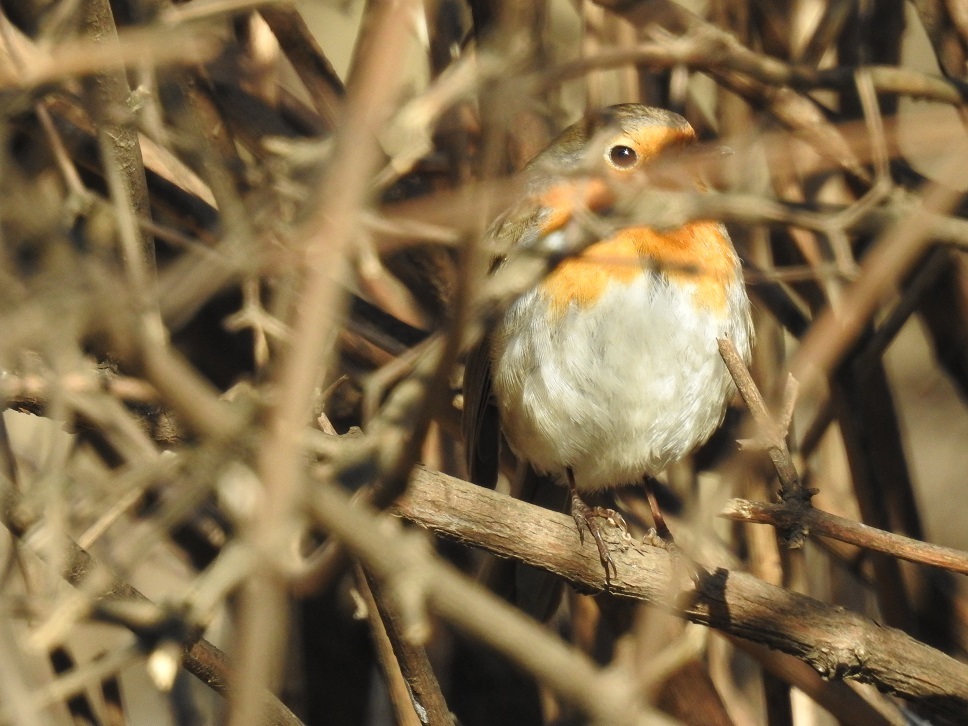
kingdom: Animalia
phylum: Chordata
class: Aves
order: Passeriformes
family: Muscicapidae
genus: Erithacus
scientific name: Erithacus rubecula
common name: European robin
